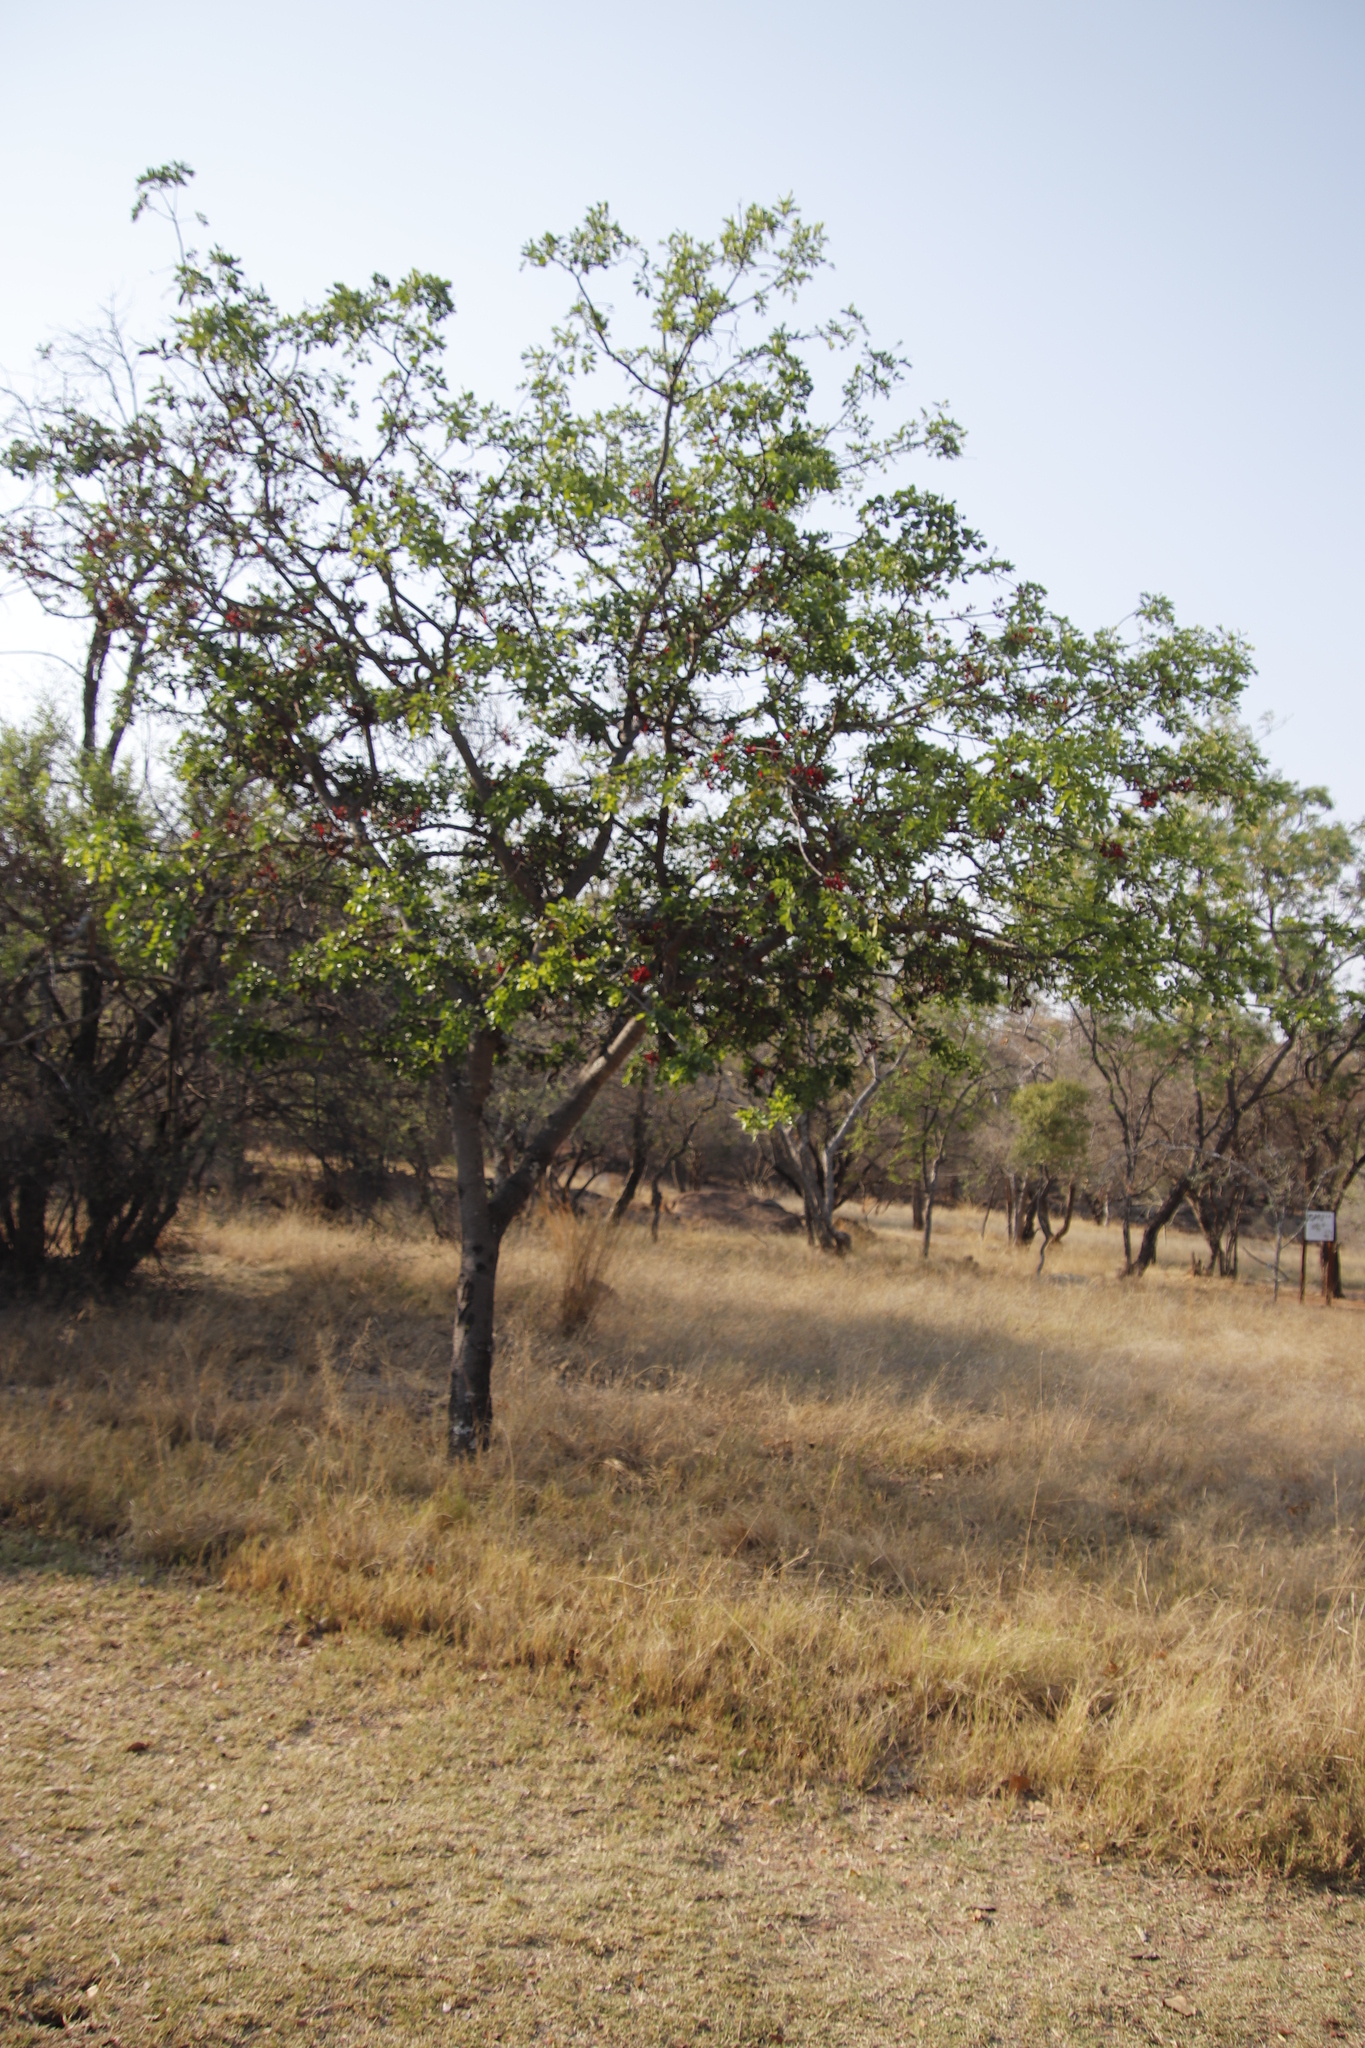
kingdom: Plantae
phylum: Tracheophyta
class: Magnoliopsida
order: Fabales
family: Fabaceae
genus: Schotia
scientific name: Schotia brachypetala
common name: Weeping boer-bean
